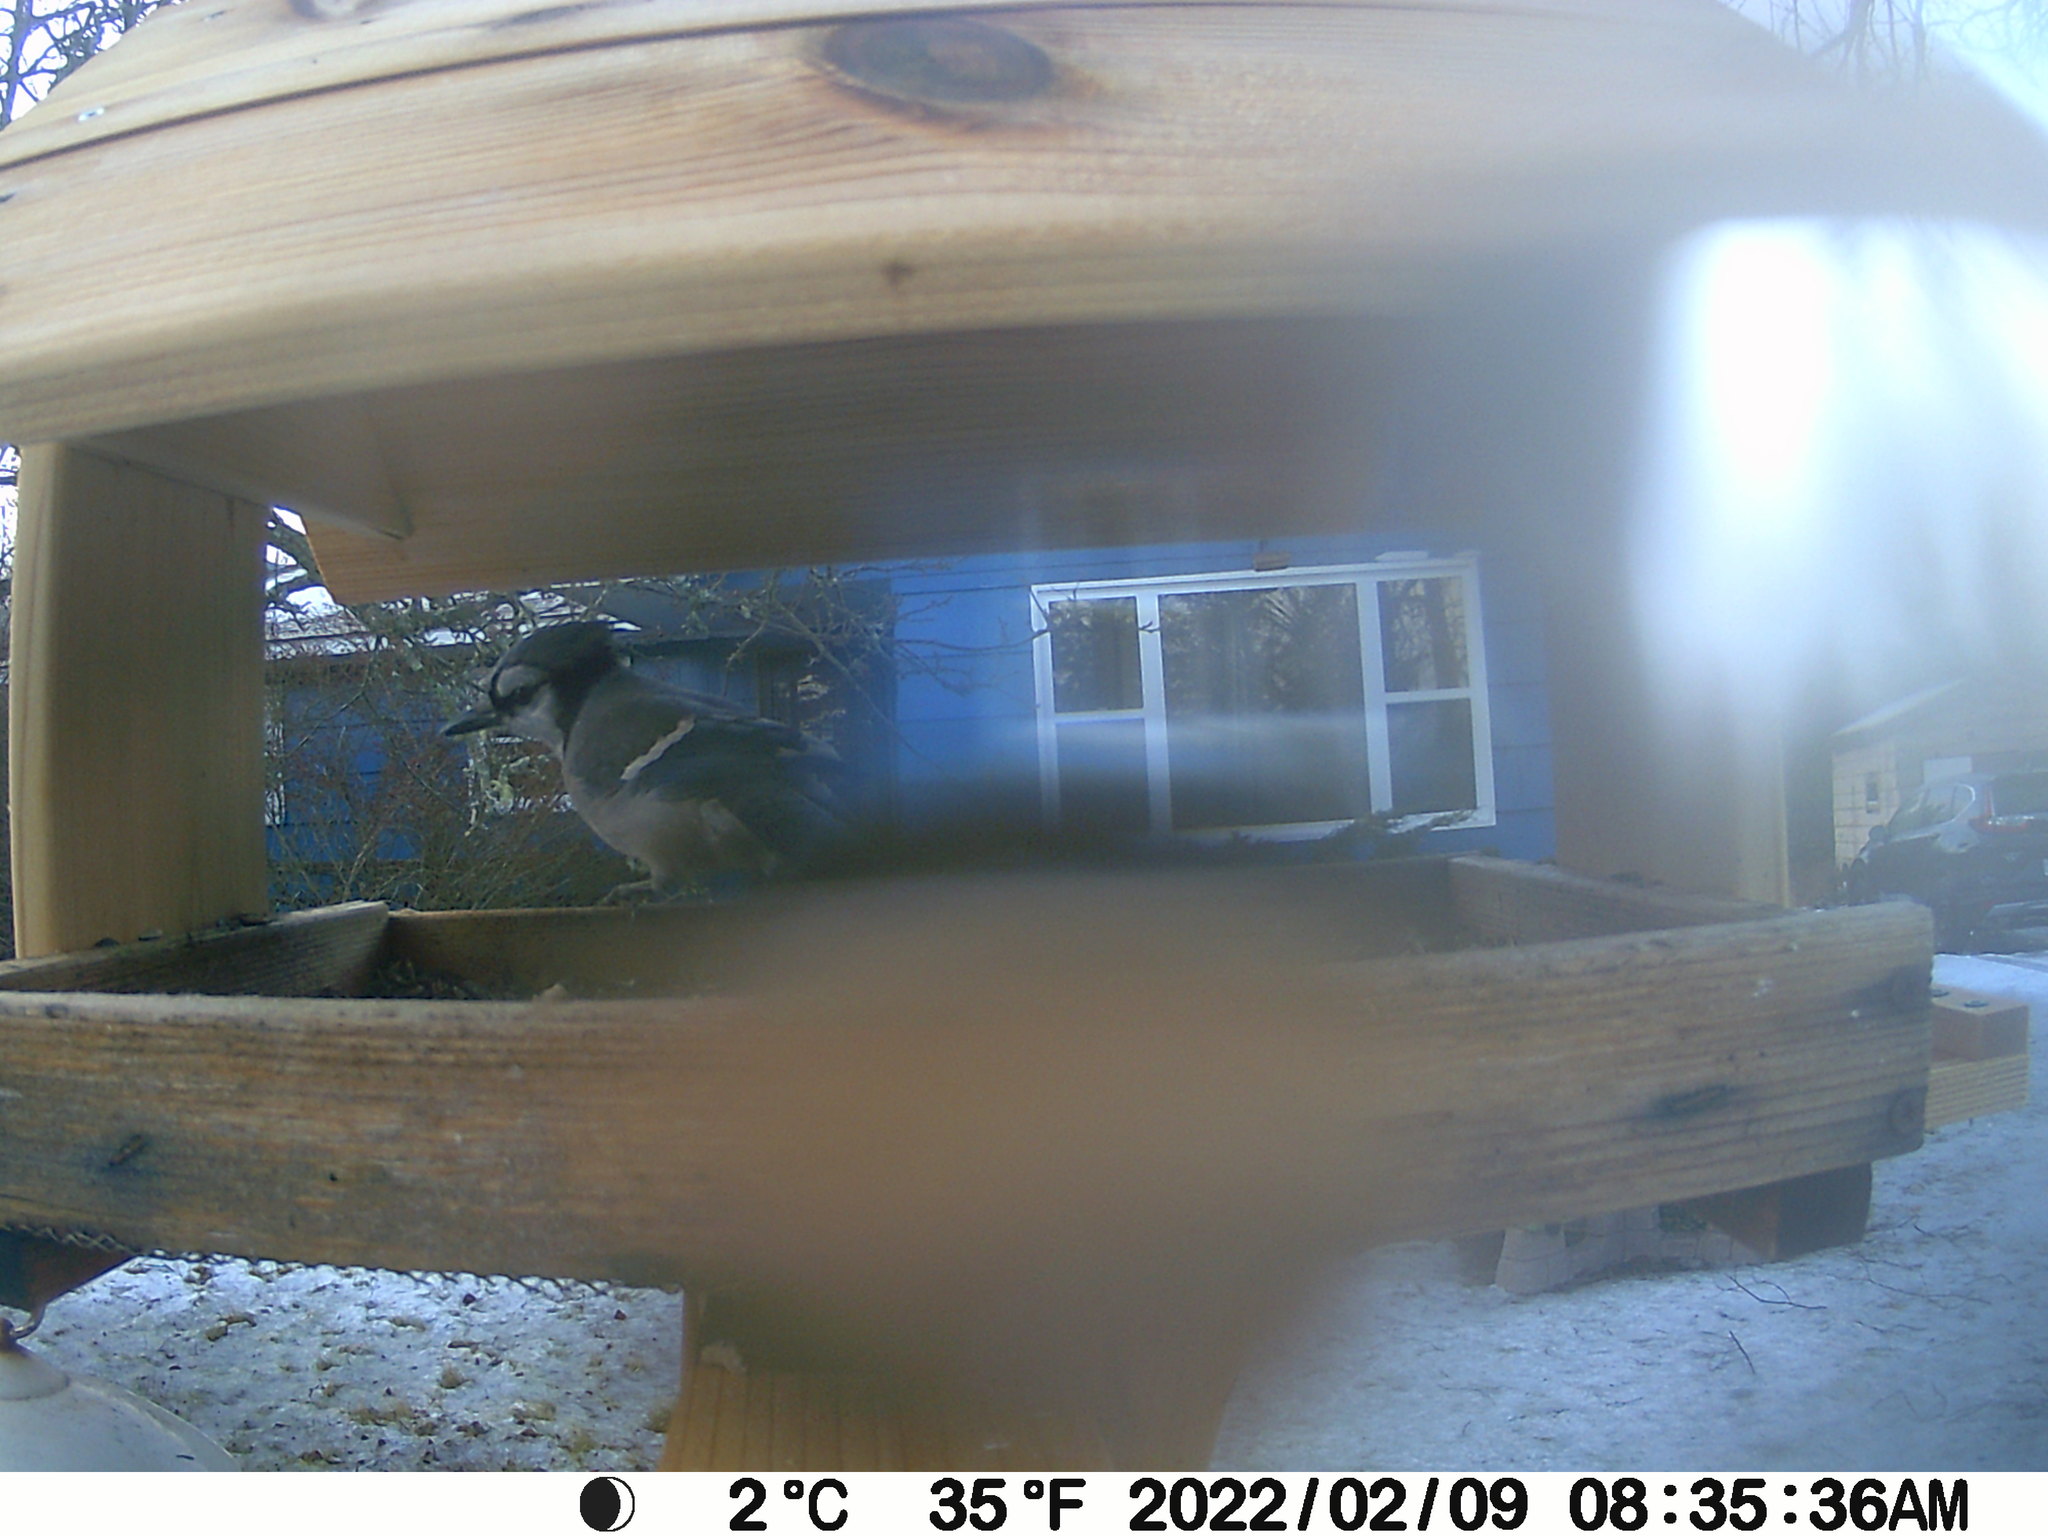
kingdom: Animalia
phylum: Chordata
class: Aves
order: Passeriformes
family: Corvidae
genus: Cyanocitta
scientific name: Cyanocitta cristata
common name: Blue jay
